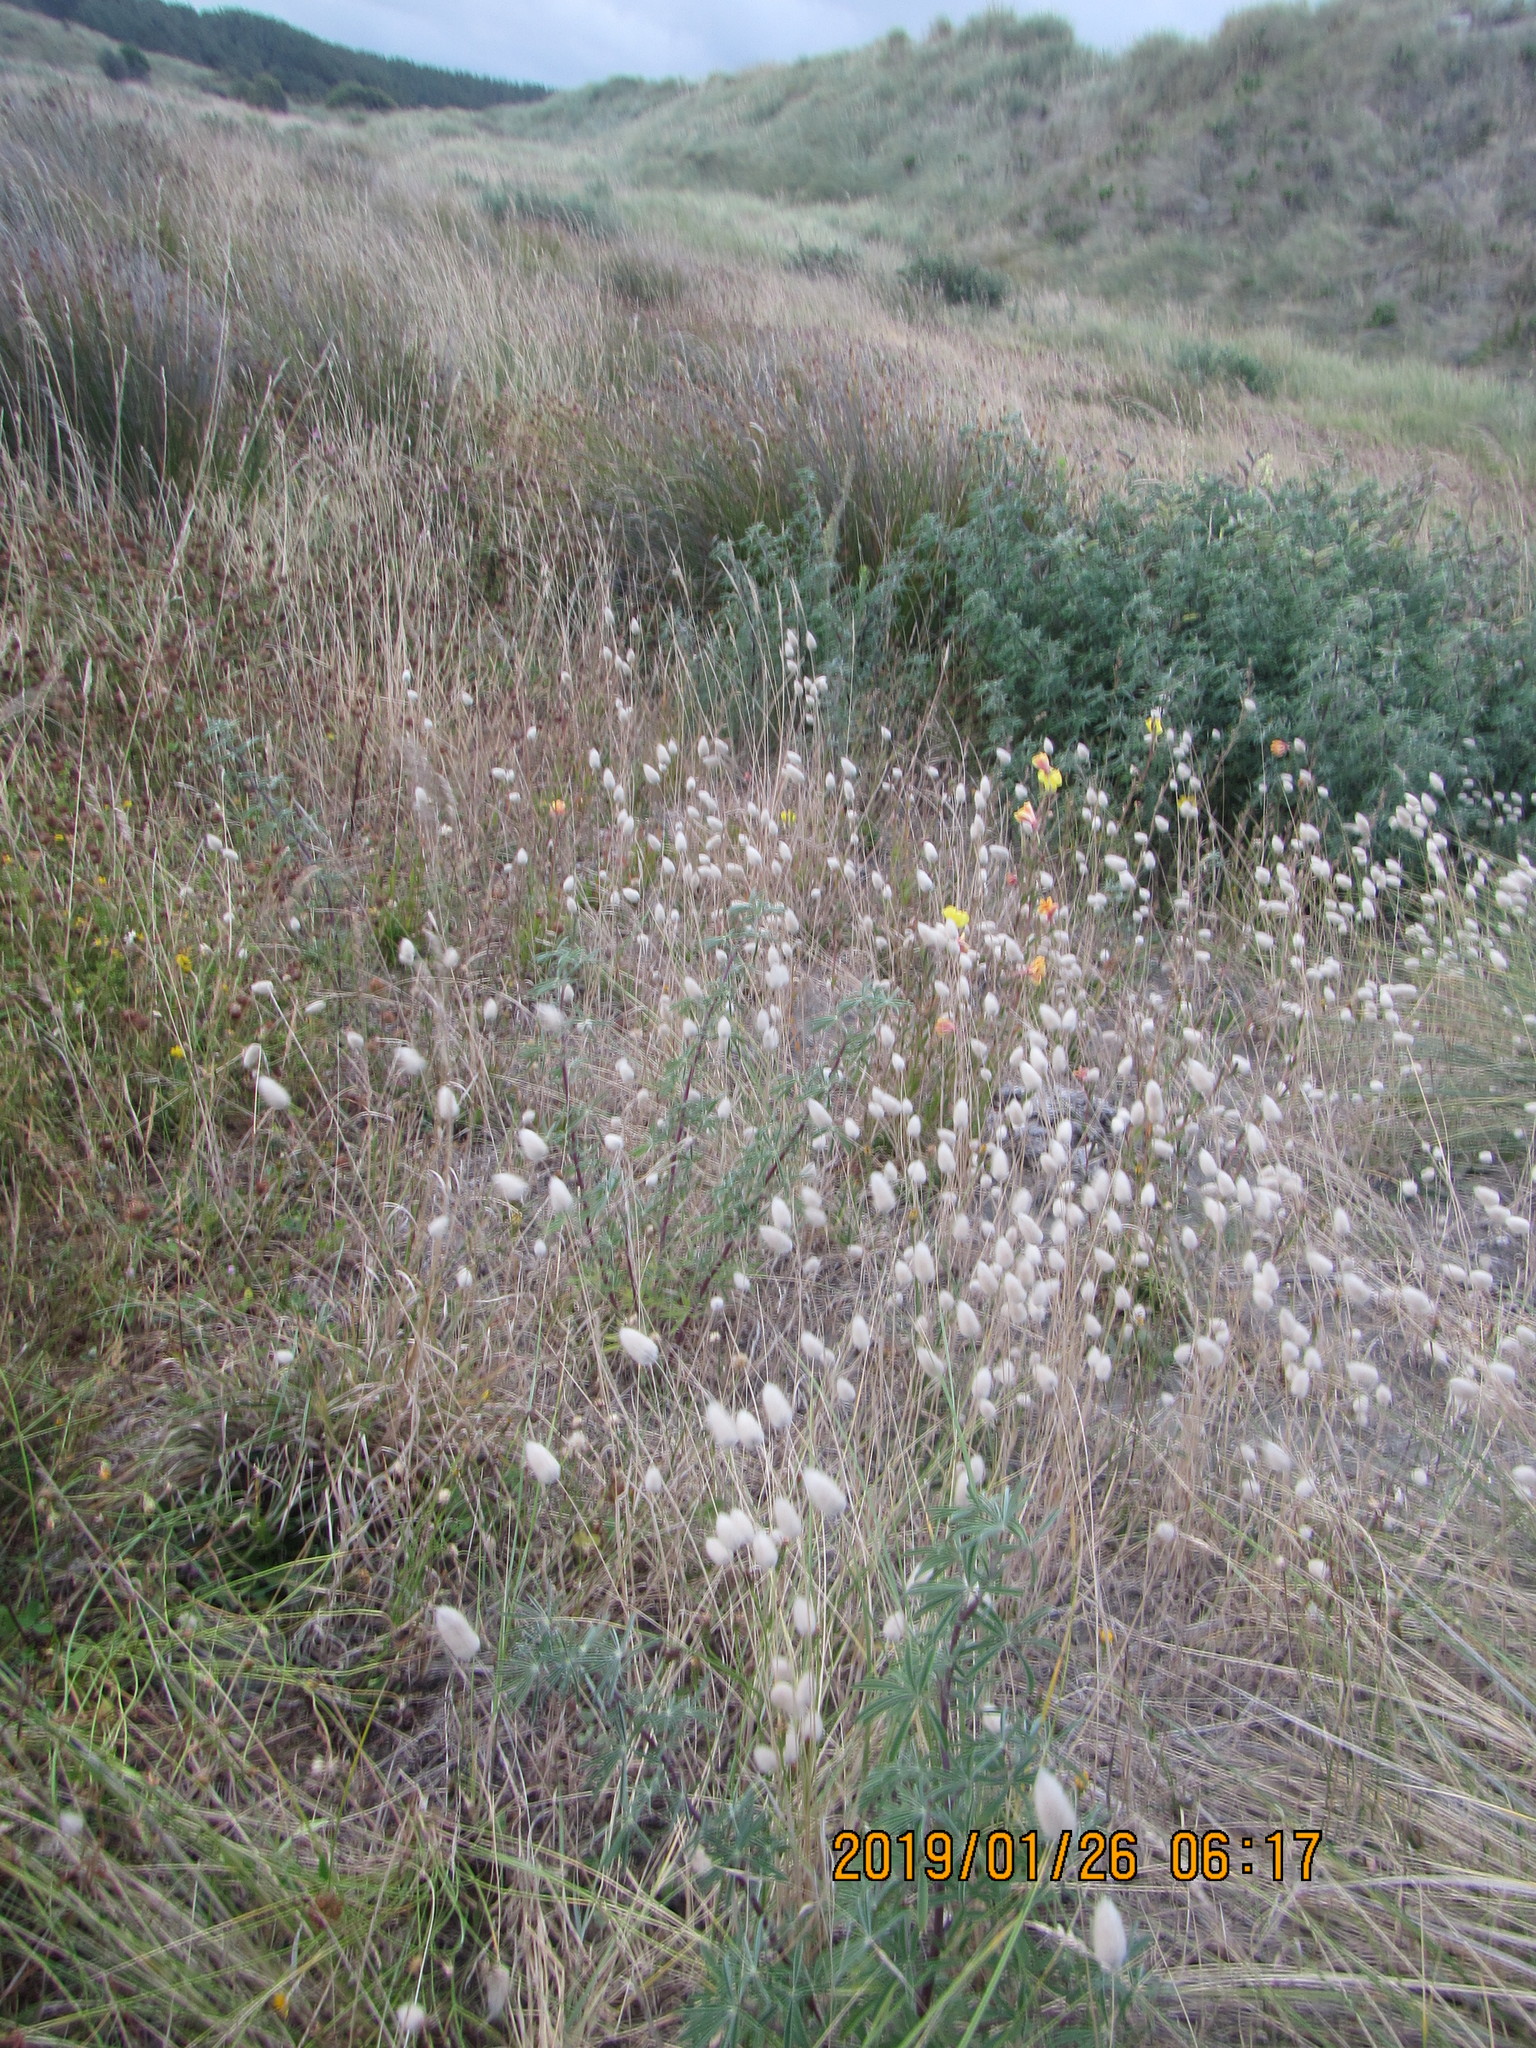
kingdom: Plantae
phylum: Tracheophyta
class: Liliopsida
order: Poales
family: Poaceae
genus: Lagurus
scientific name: Lagurus ovatus
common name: Hare's-tail
